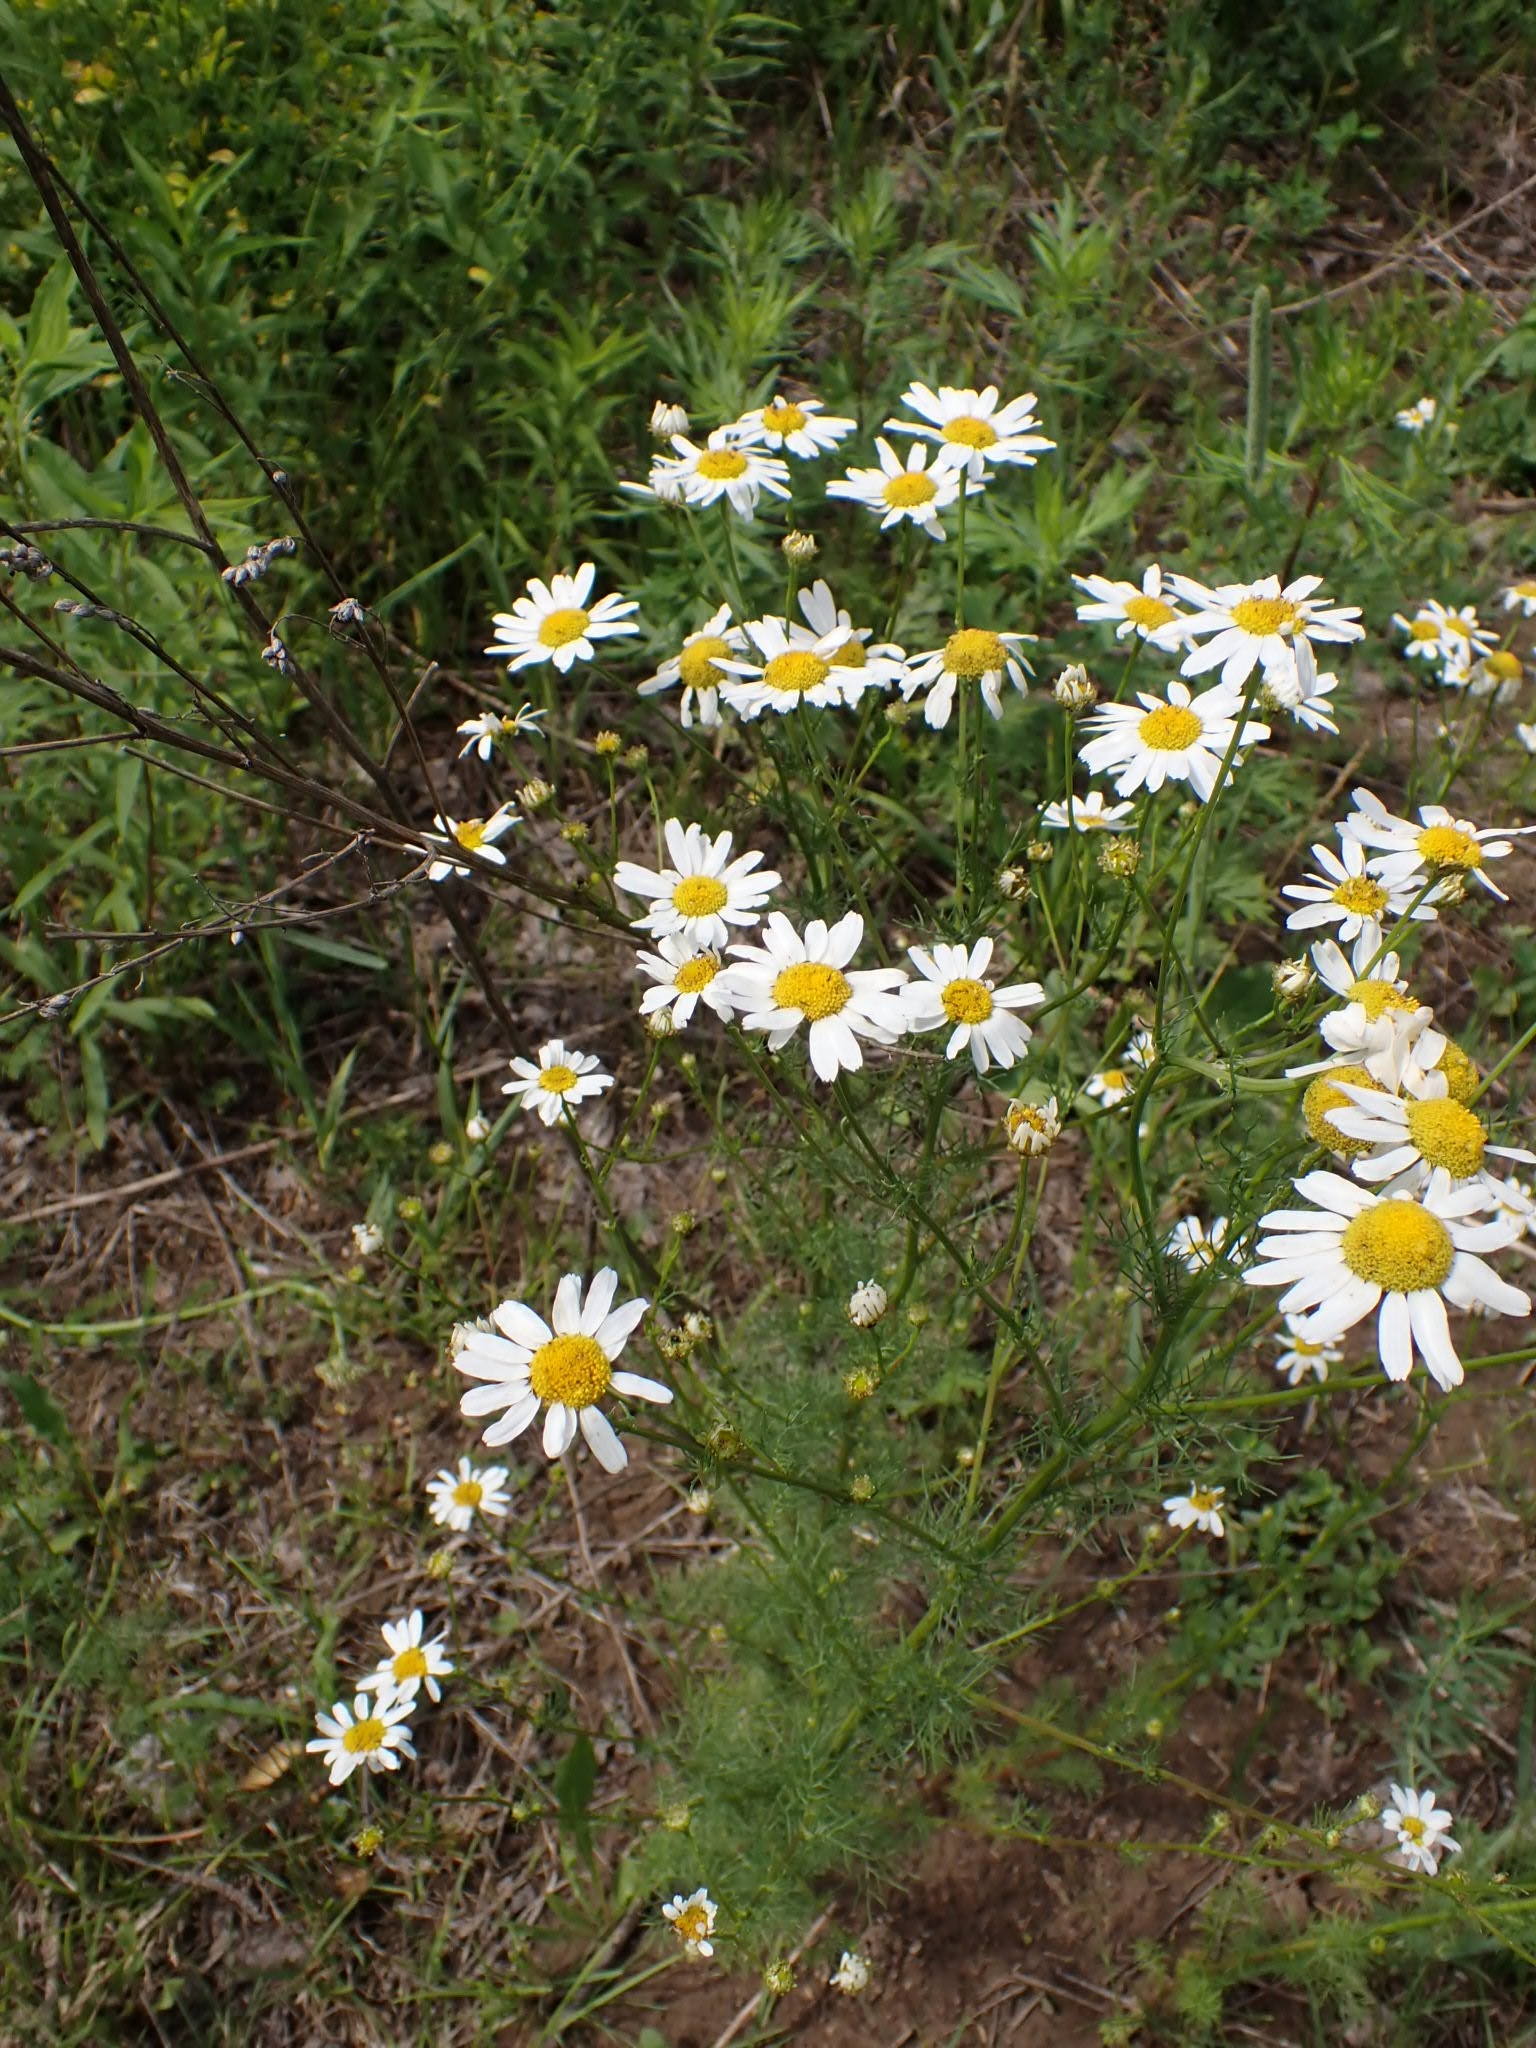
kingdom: Plantae
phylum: Tracheophyta
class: Magnoliopsida
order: Asterales
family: Asteraceae
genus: Tripleurospermum
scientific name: Tripleurospermum inodorum
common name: Scentless mayweed
